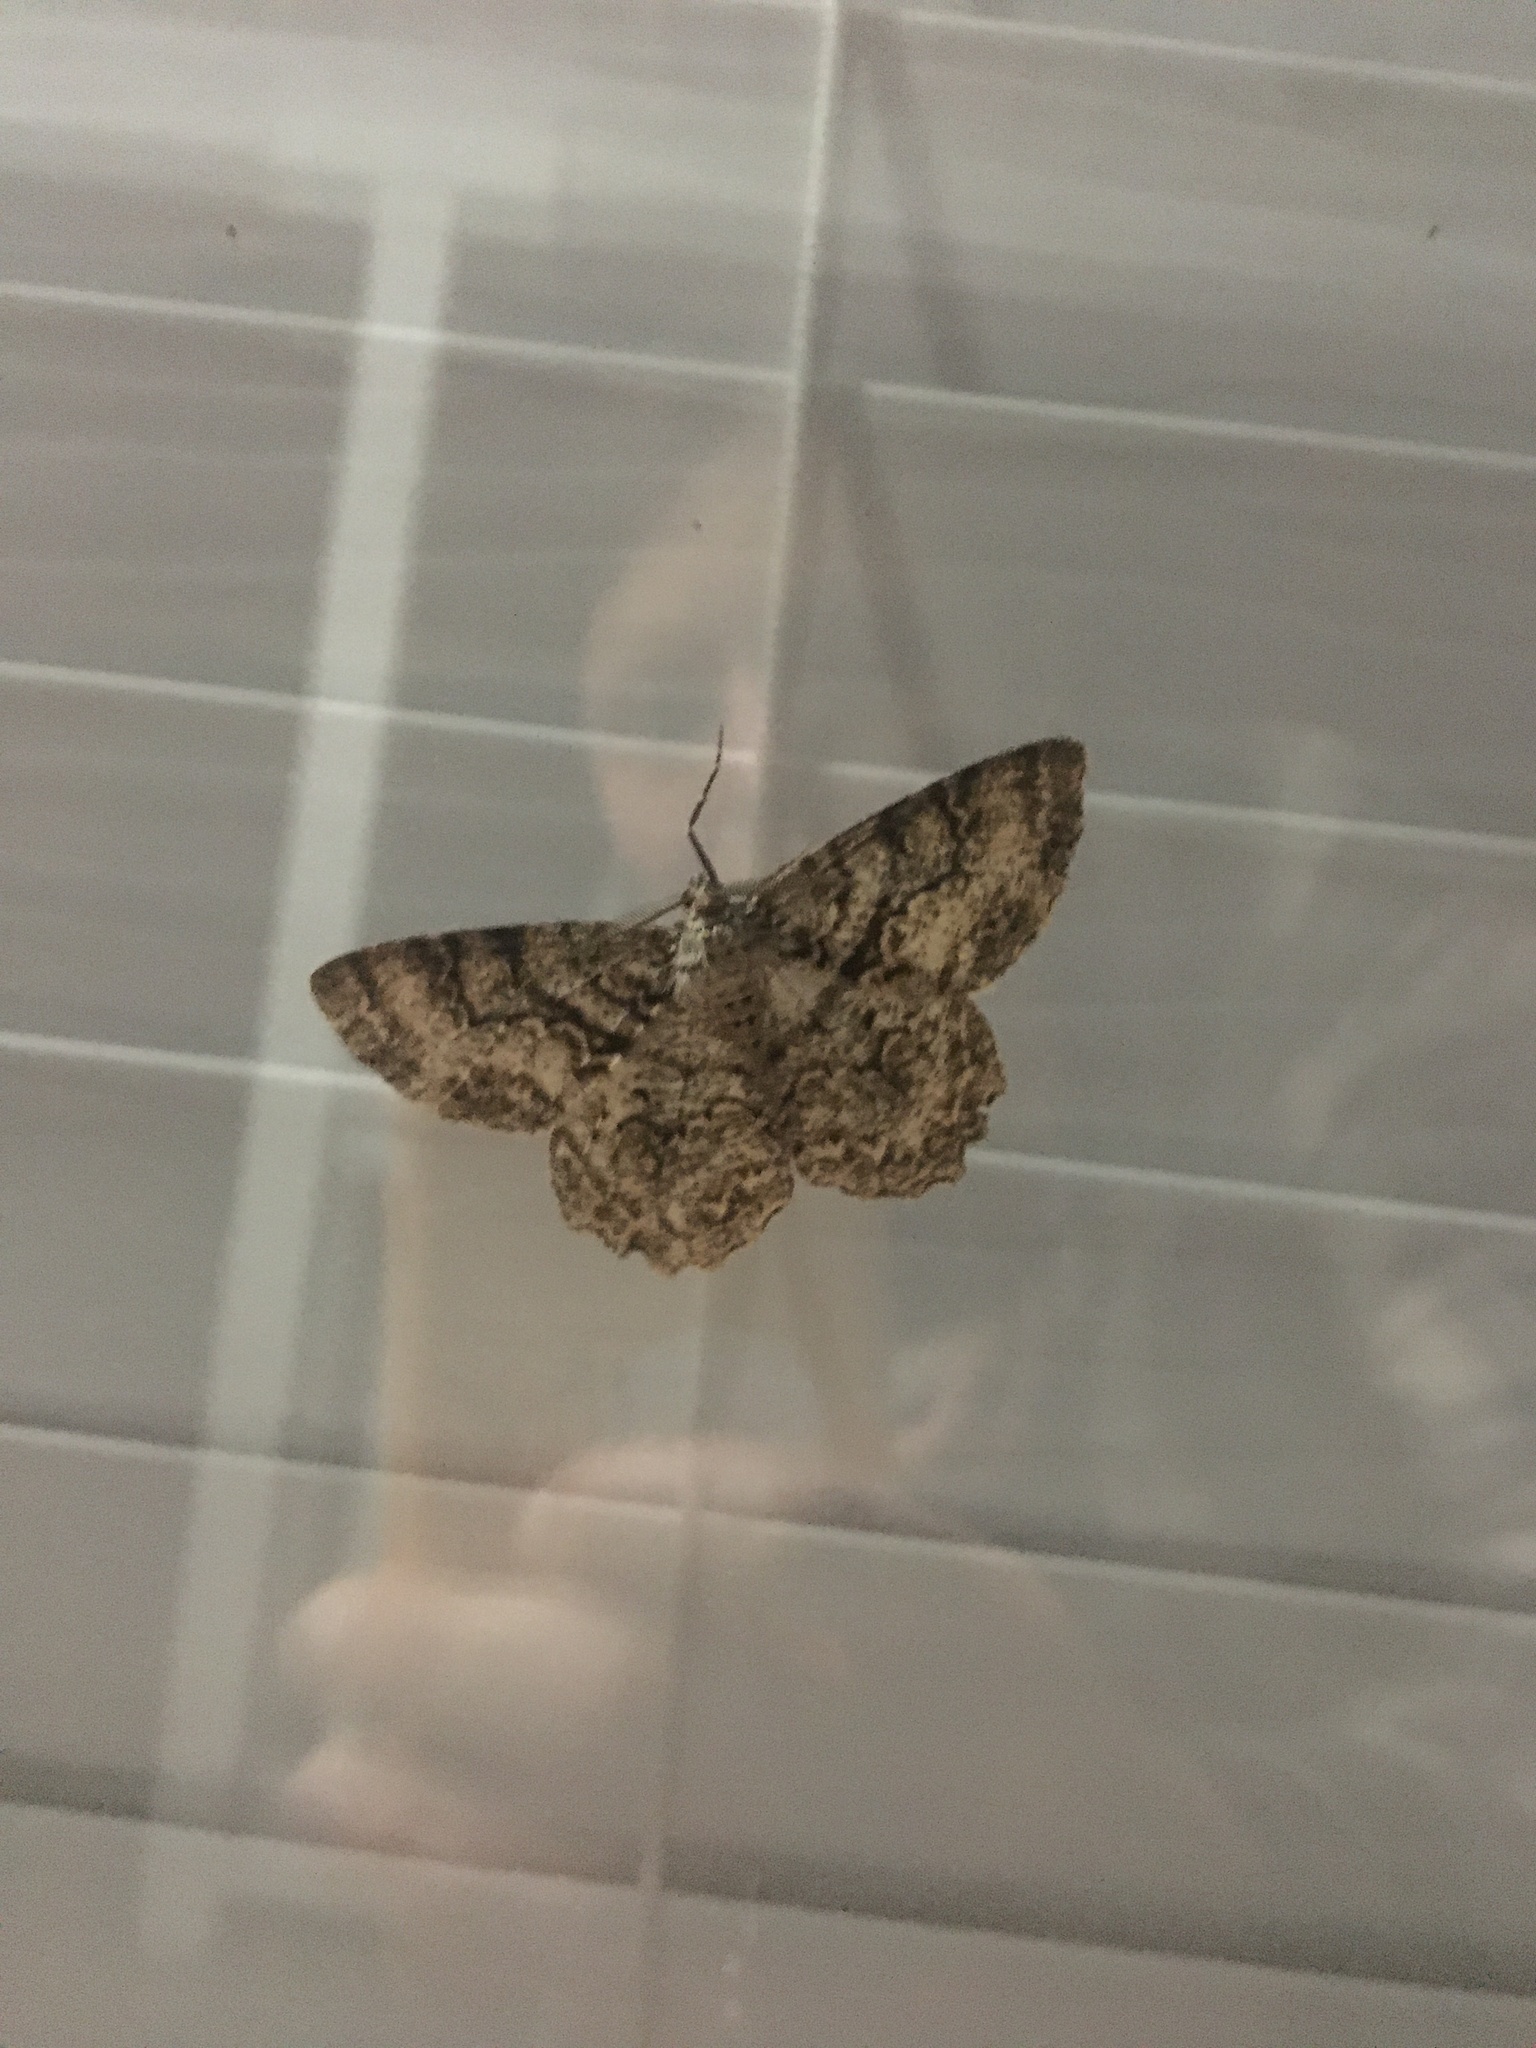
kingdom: Animalia
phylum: Arthropoda
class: Insecta
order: Lepidoptera
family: Geometridae
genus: Epimecis
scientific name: Epimecis hortaria
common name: Tulip-tree beauty
